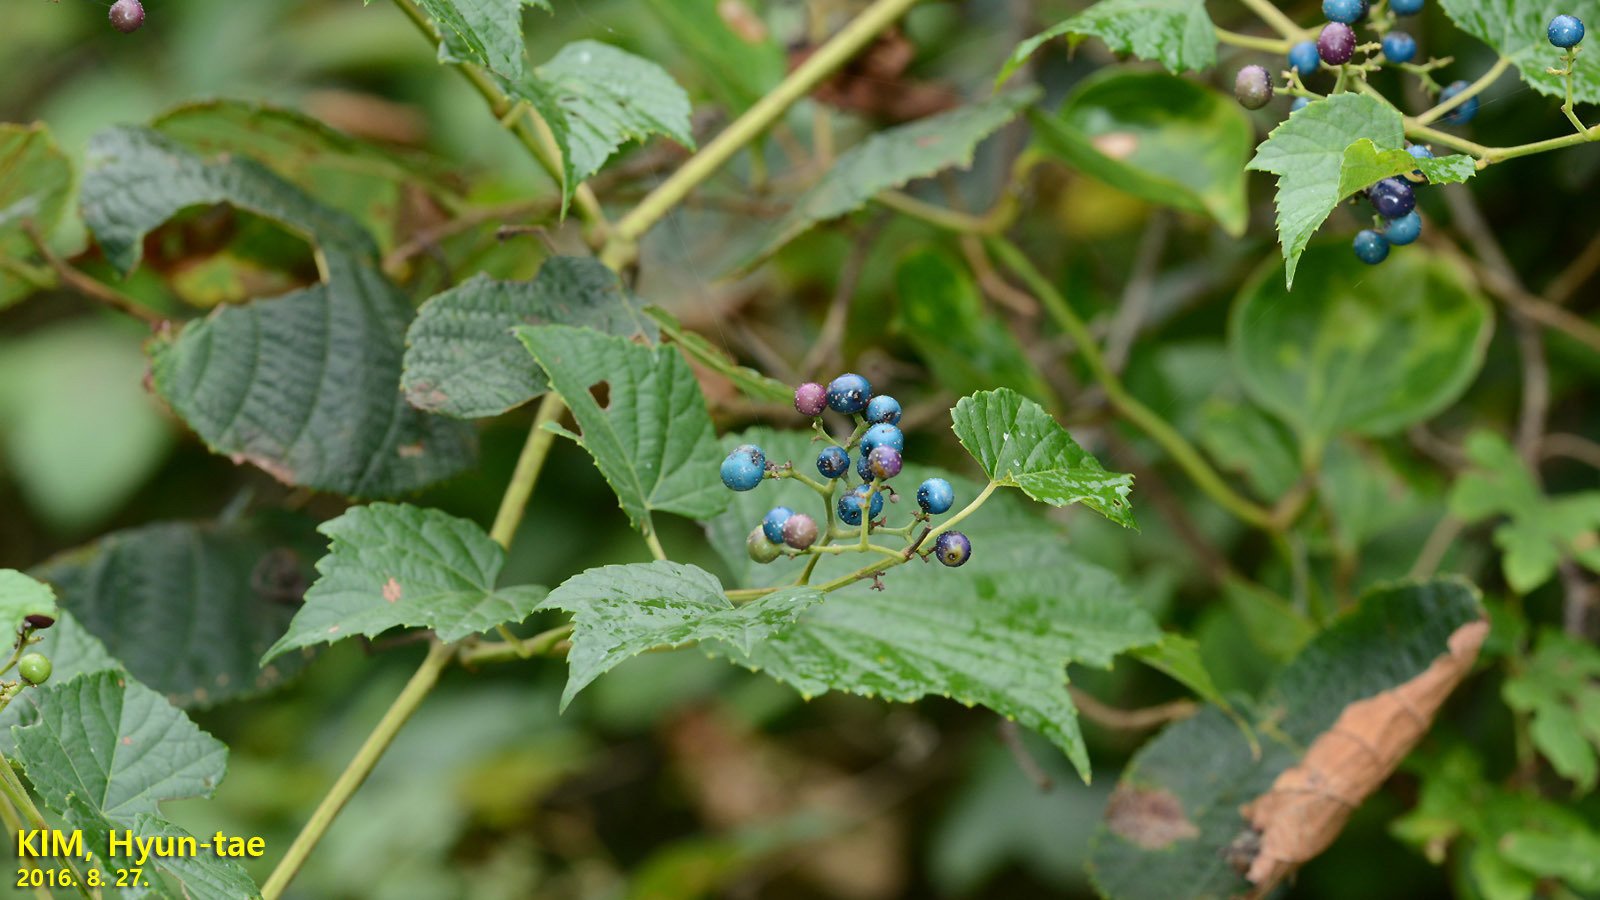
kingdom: Plantae
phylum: Tracheophyta
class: Magnoliopsida
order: Vitales
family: Vitaceae
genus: Ampelopsis
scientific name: Ampelopsis glandulosa
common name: Amur peppervine
